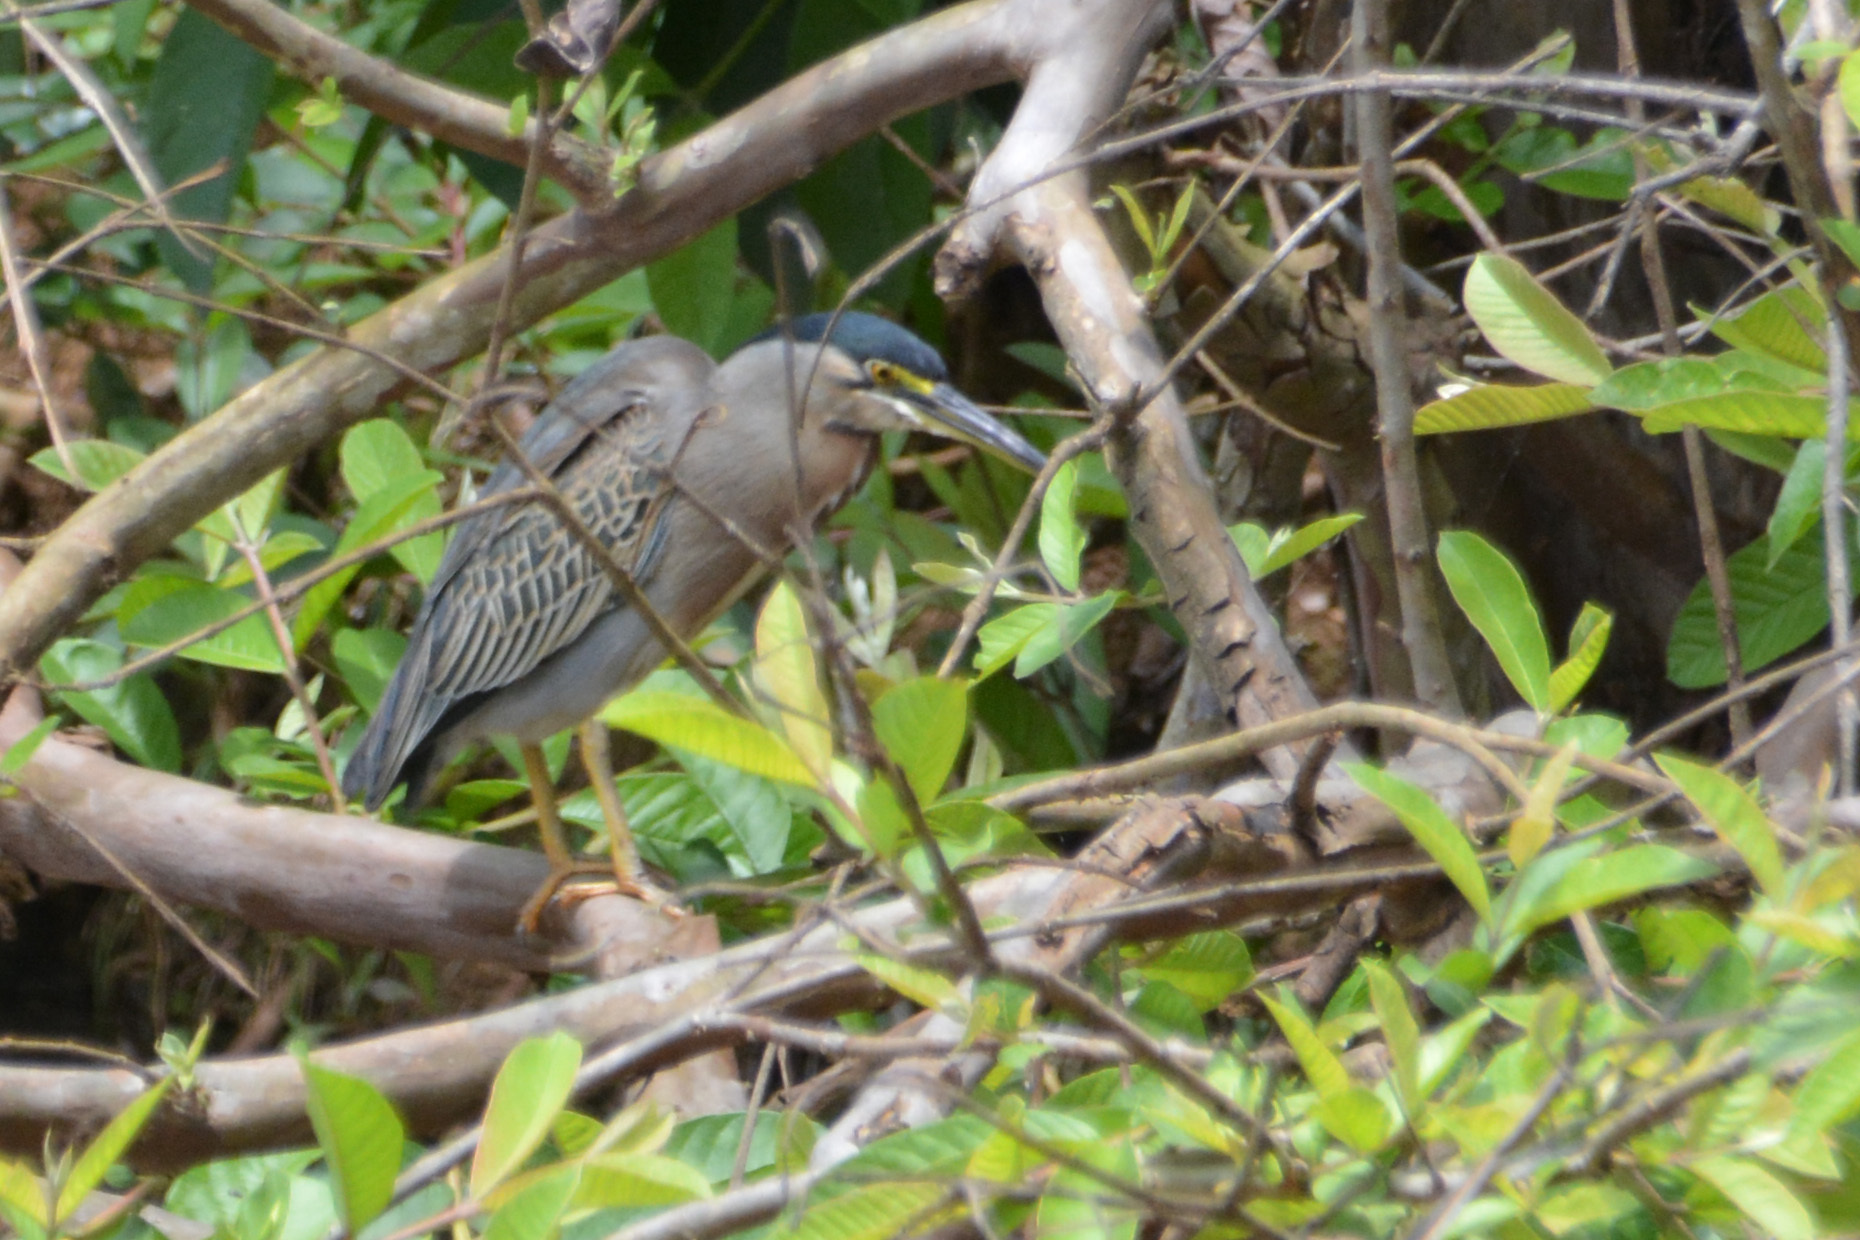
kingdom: Animalia
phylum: Chordata
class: Aves
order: Pelecaniformes
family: Ardeidae
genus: Butorides
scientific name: Butorides striata
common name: Striated heron
